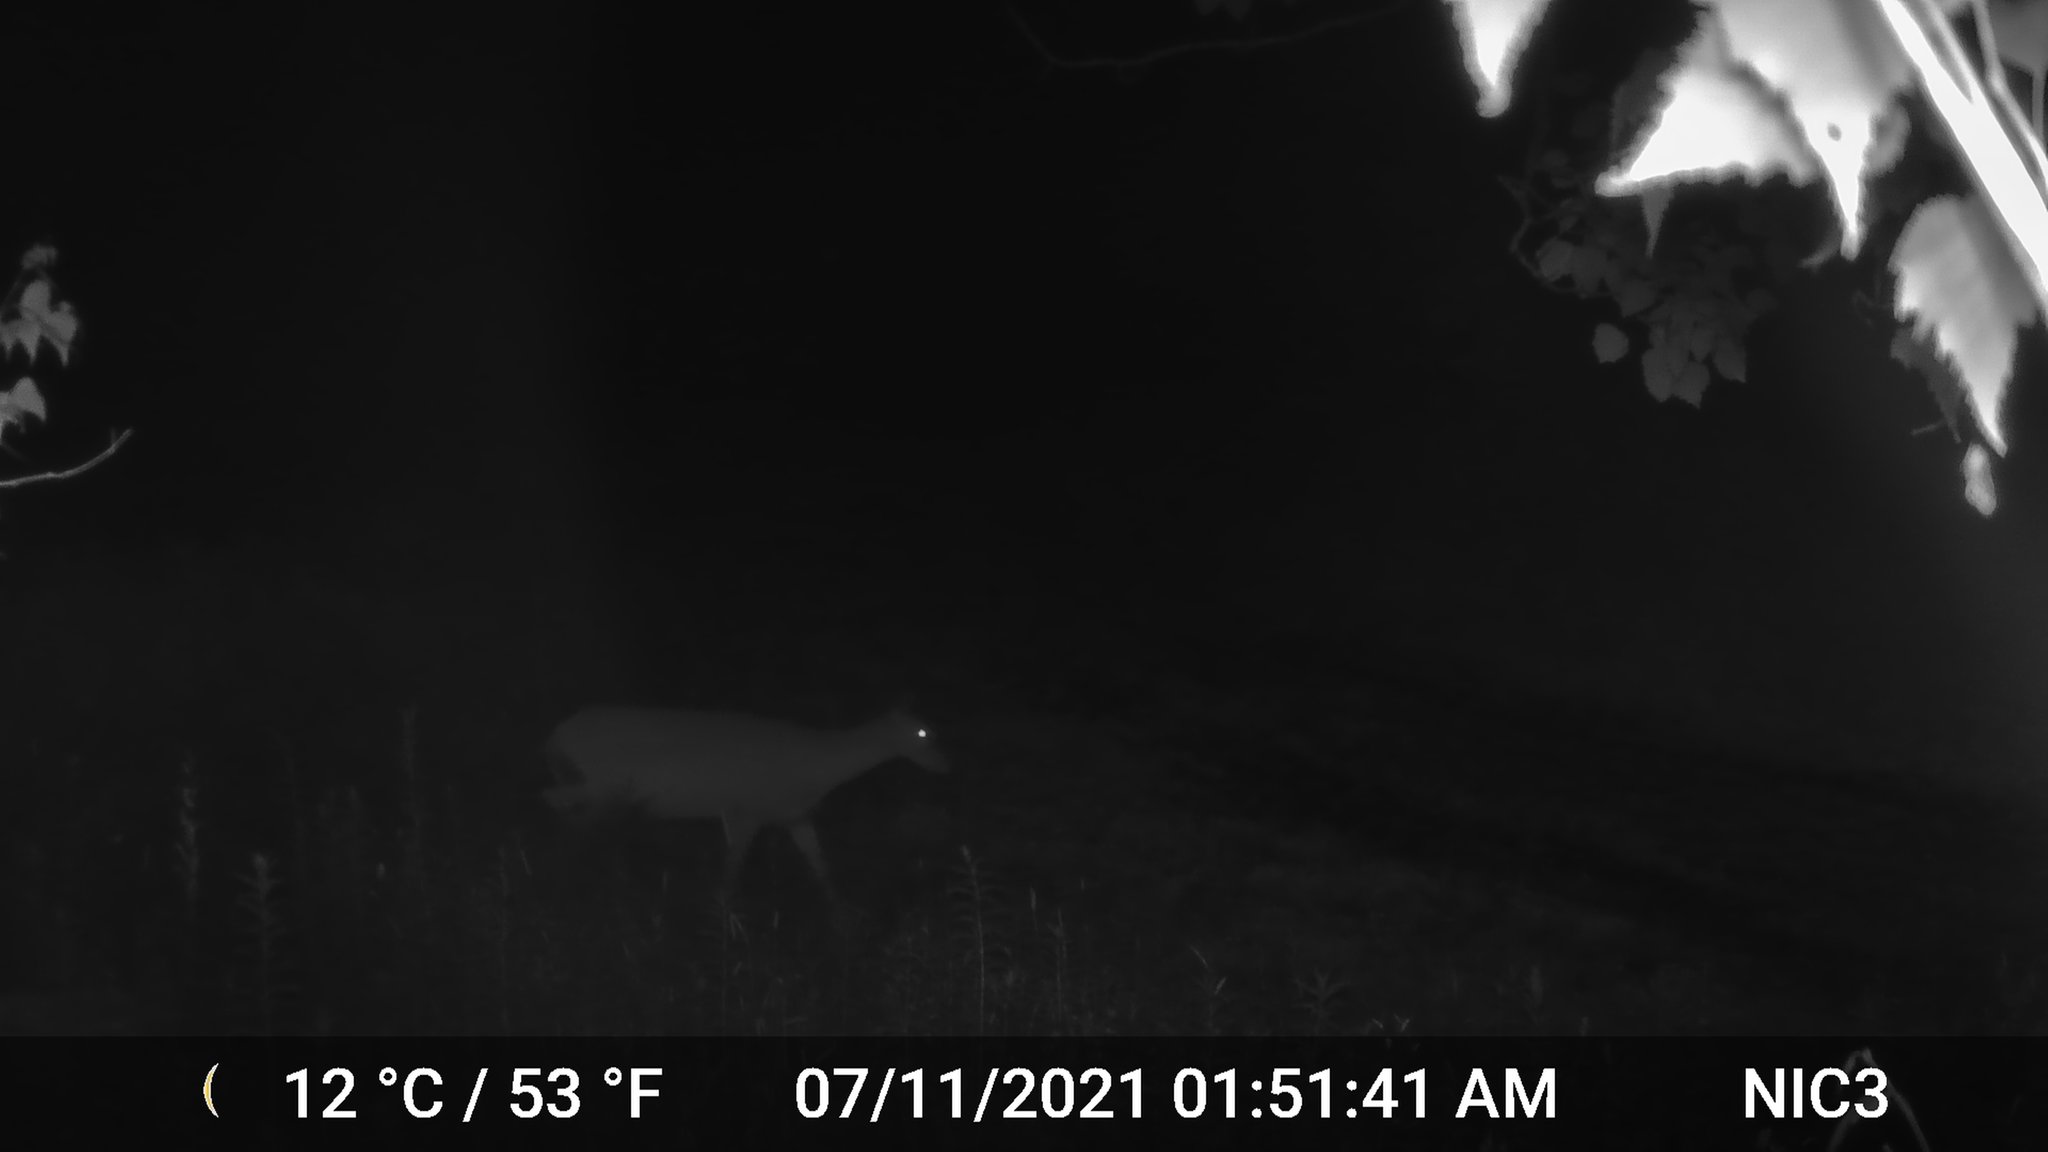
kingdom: Animalia
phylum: Chordata
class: Mammalia
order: Artiodactyla
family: Cervidae
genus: Odocoileus
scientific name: Odocoileus virginianus
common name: White-tailed deer
